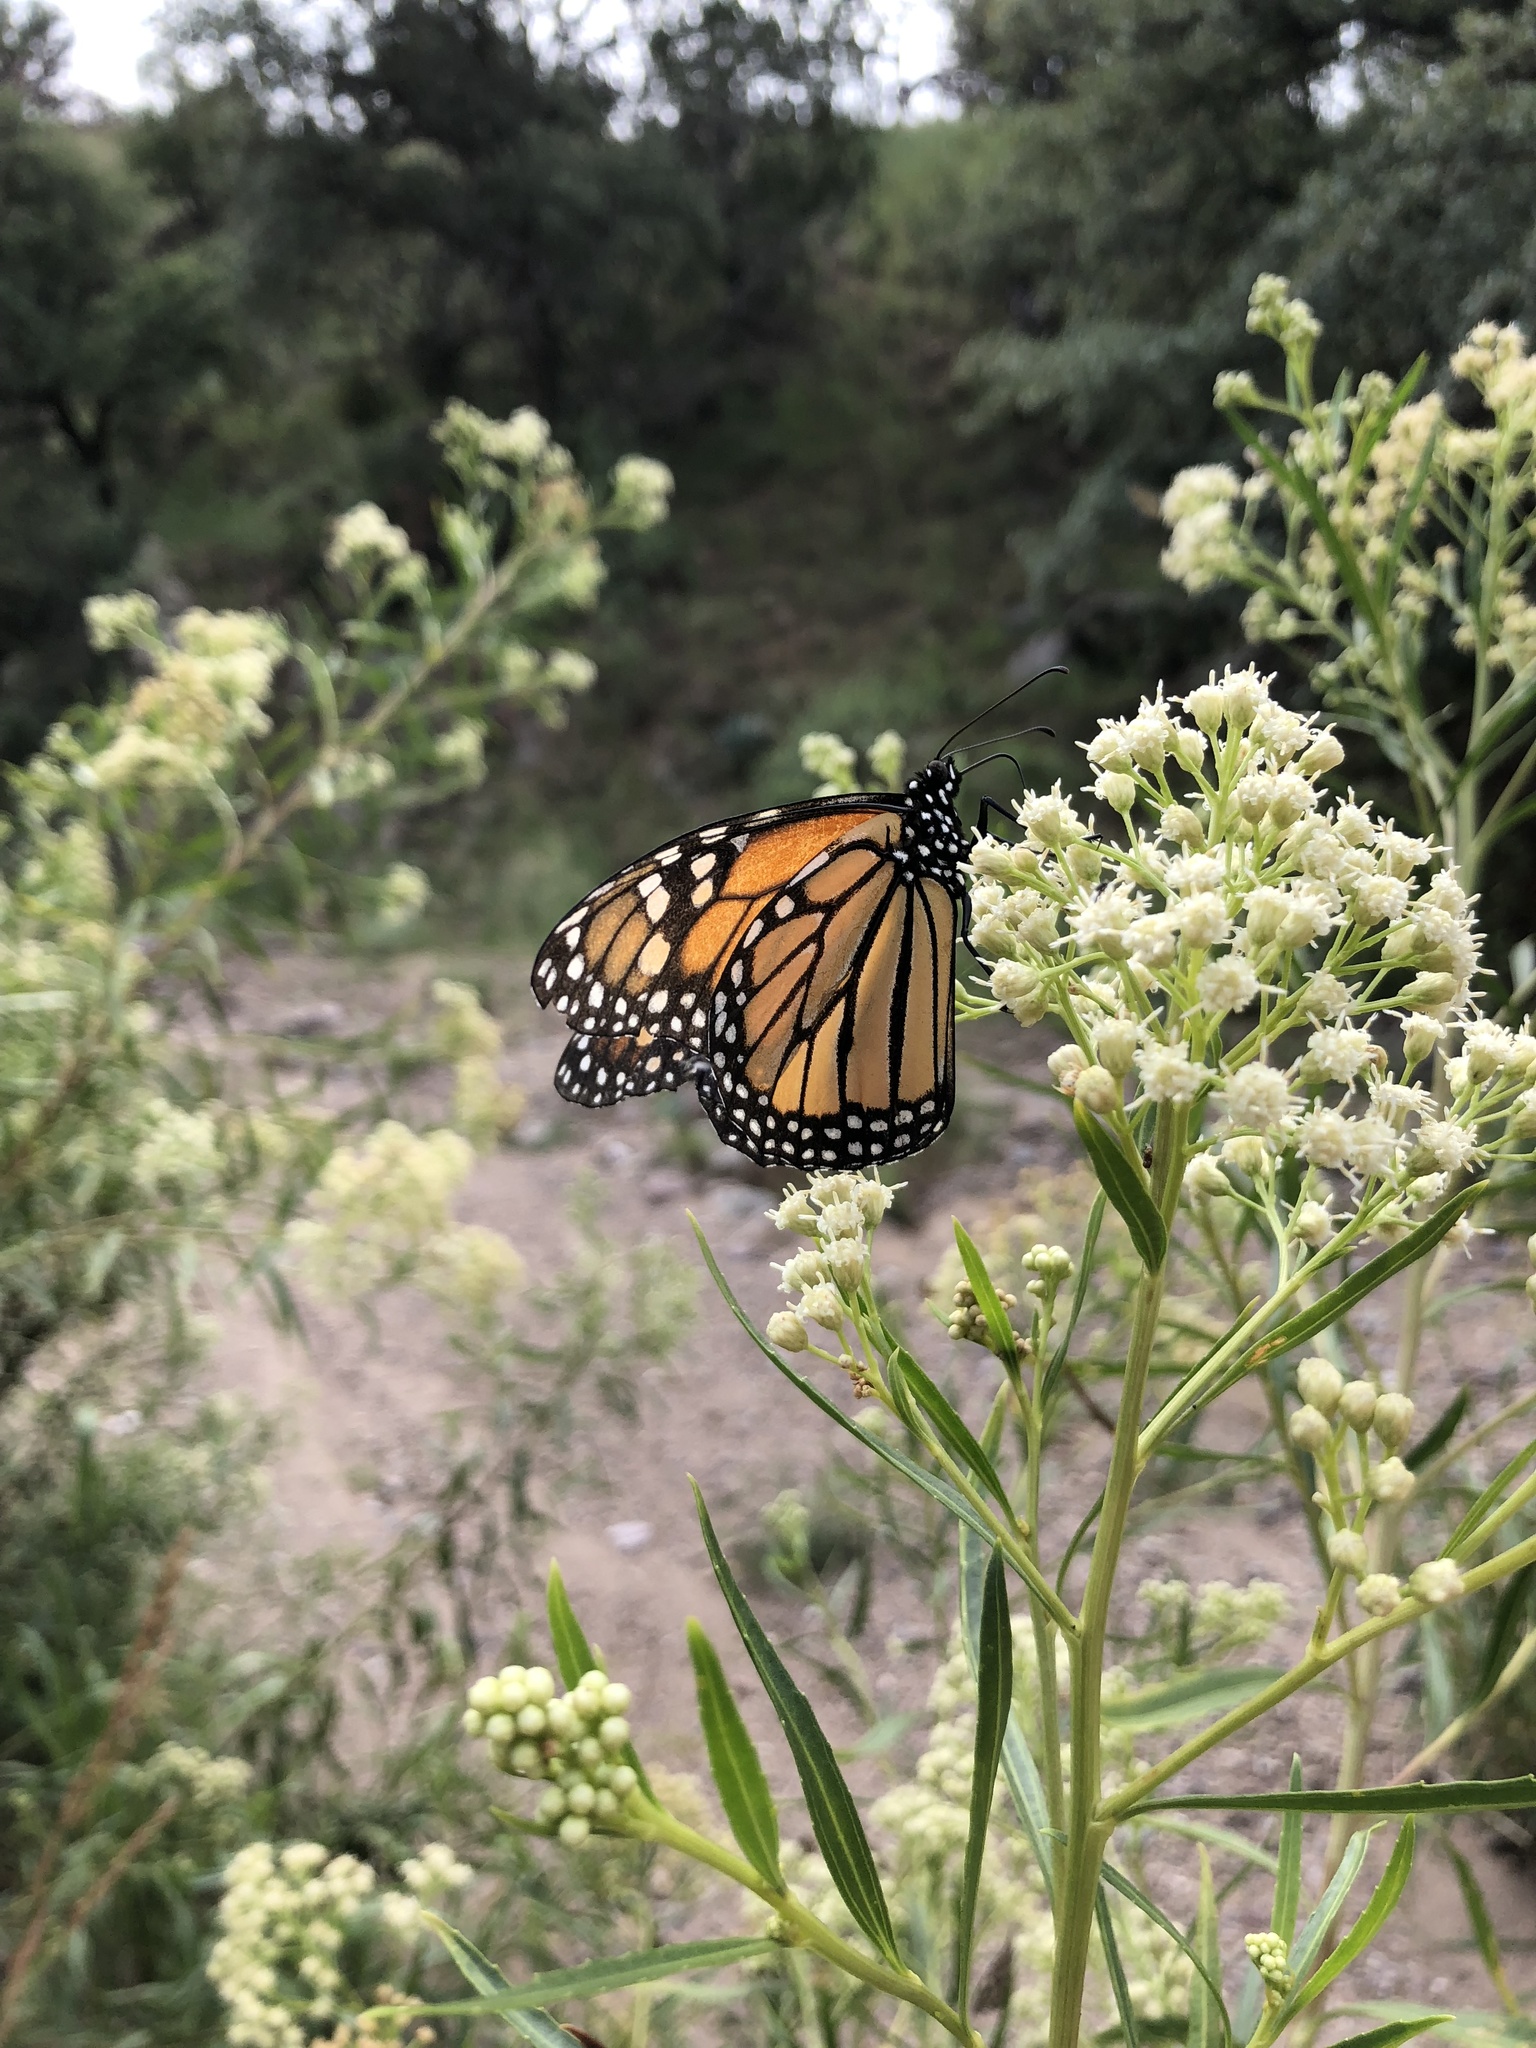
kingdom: Animalia
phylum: Arthropoda
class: Insecta
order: Lepidoptera
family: Nymphalidae
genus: Danaus
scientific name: Danaus plexippus
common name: Monarch
